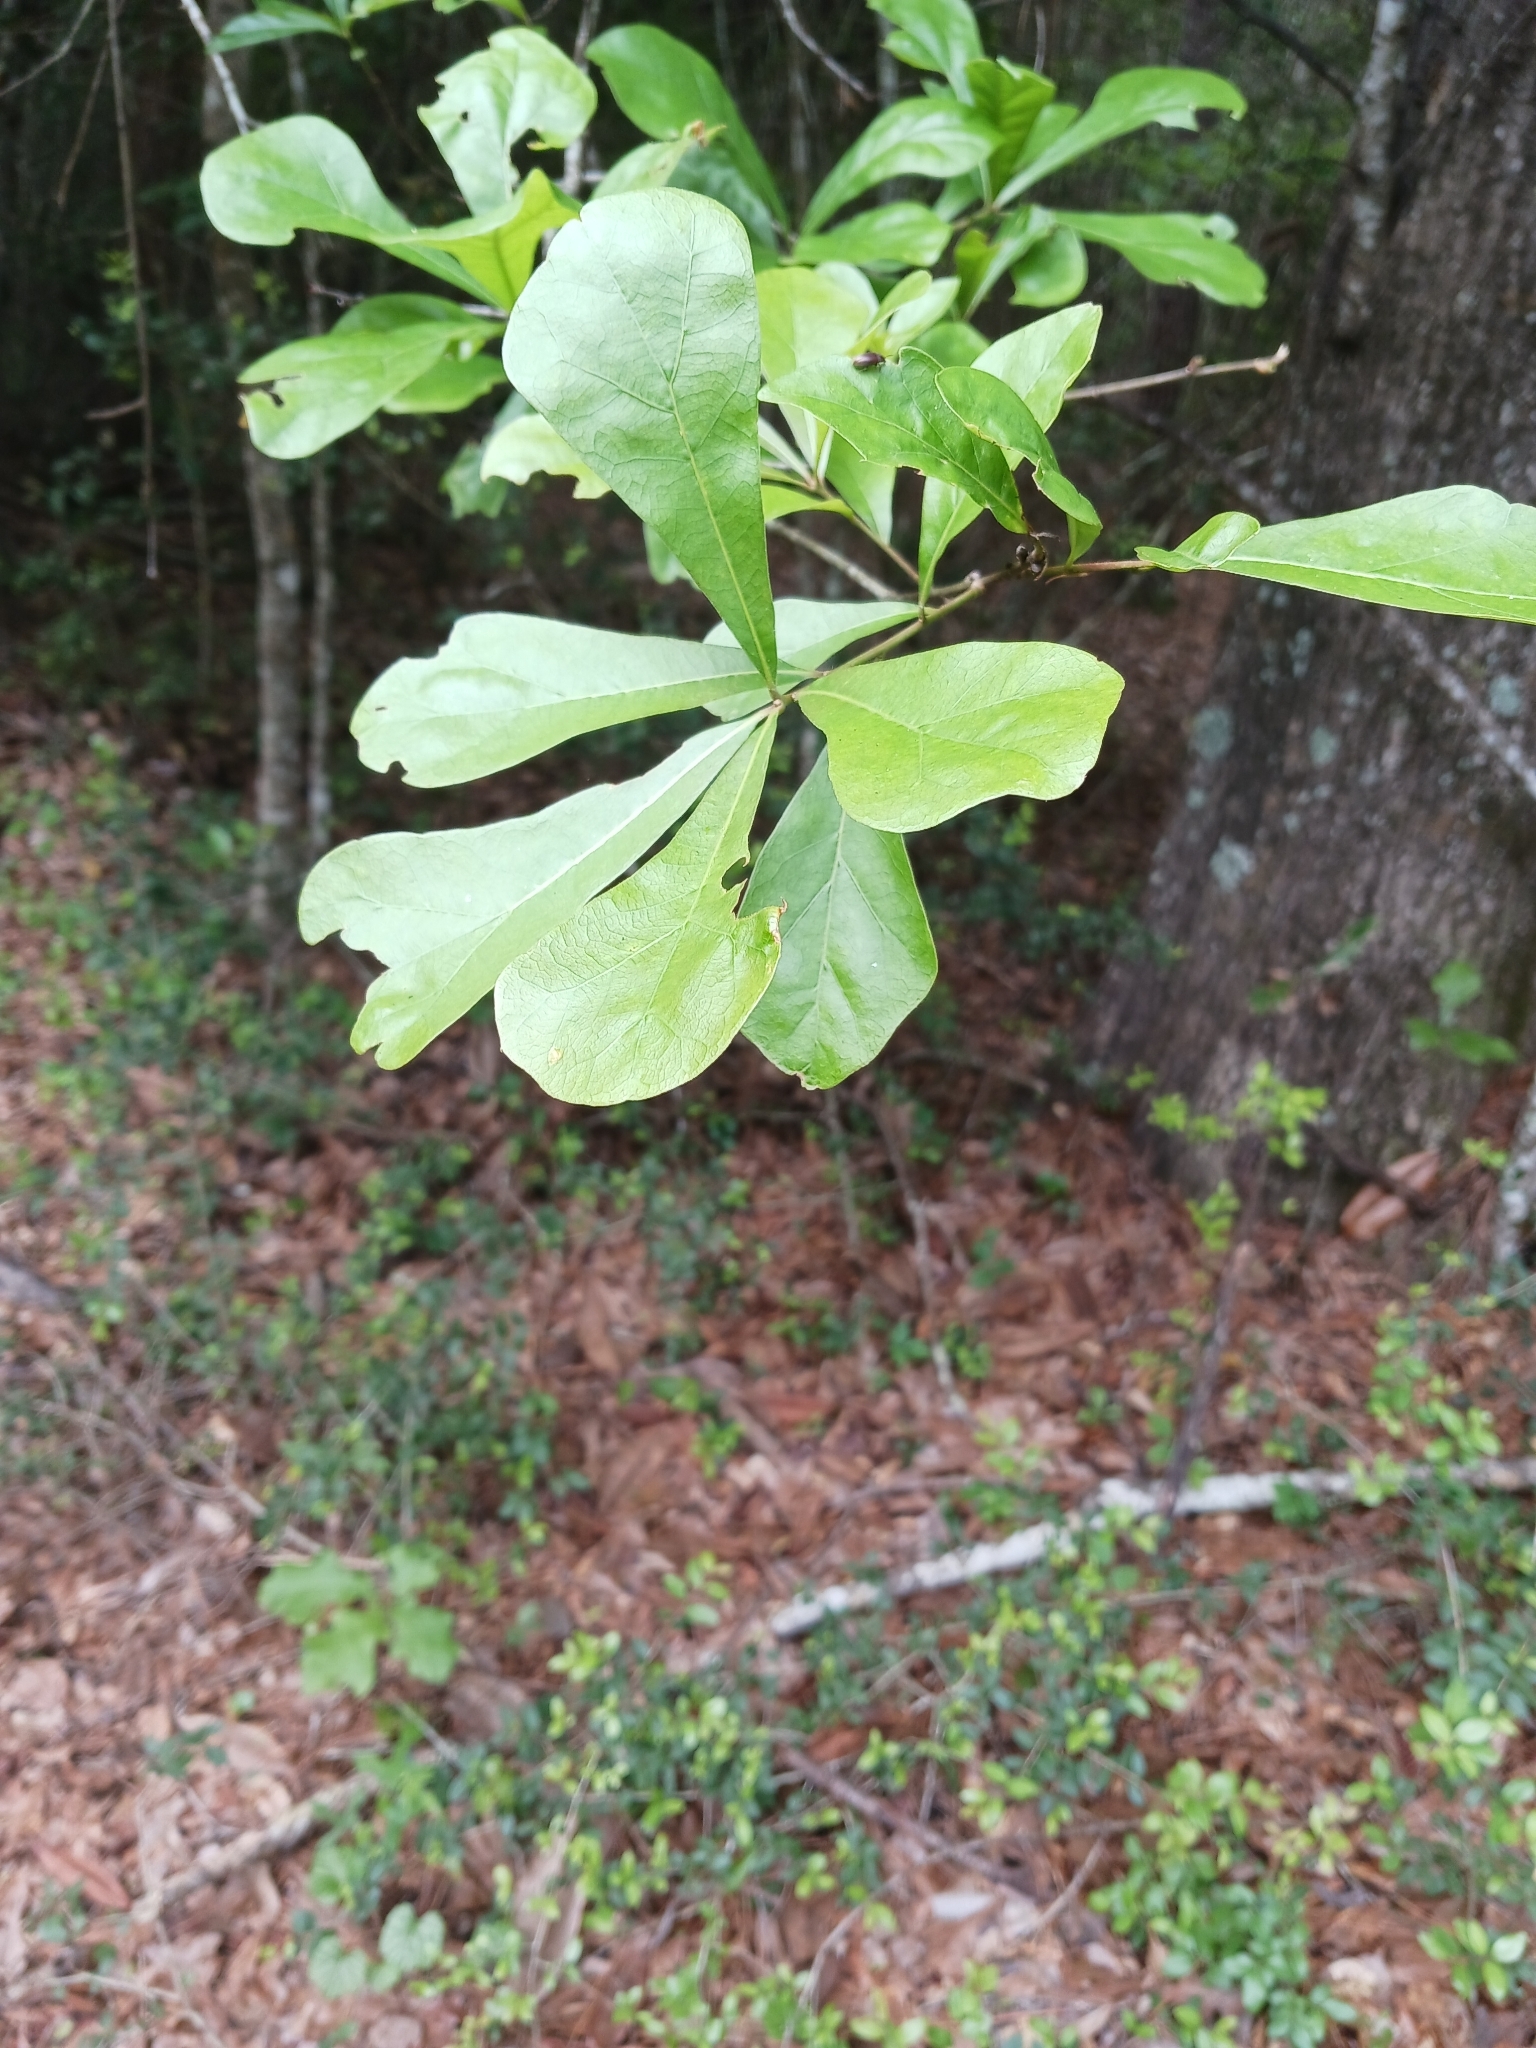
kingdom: Plantae
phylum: Tracheophyta
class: Magnoliopsida
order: Fagales
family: Fagaceae
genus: Quercus
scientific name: Quercus nigra
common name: Water oak
